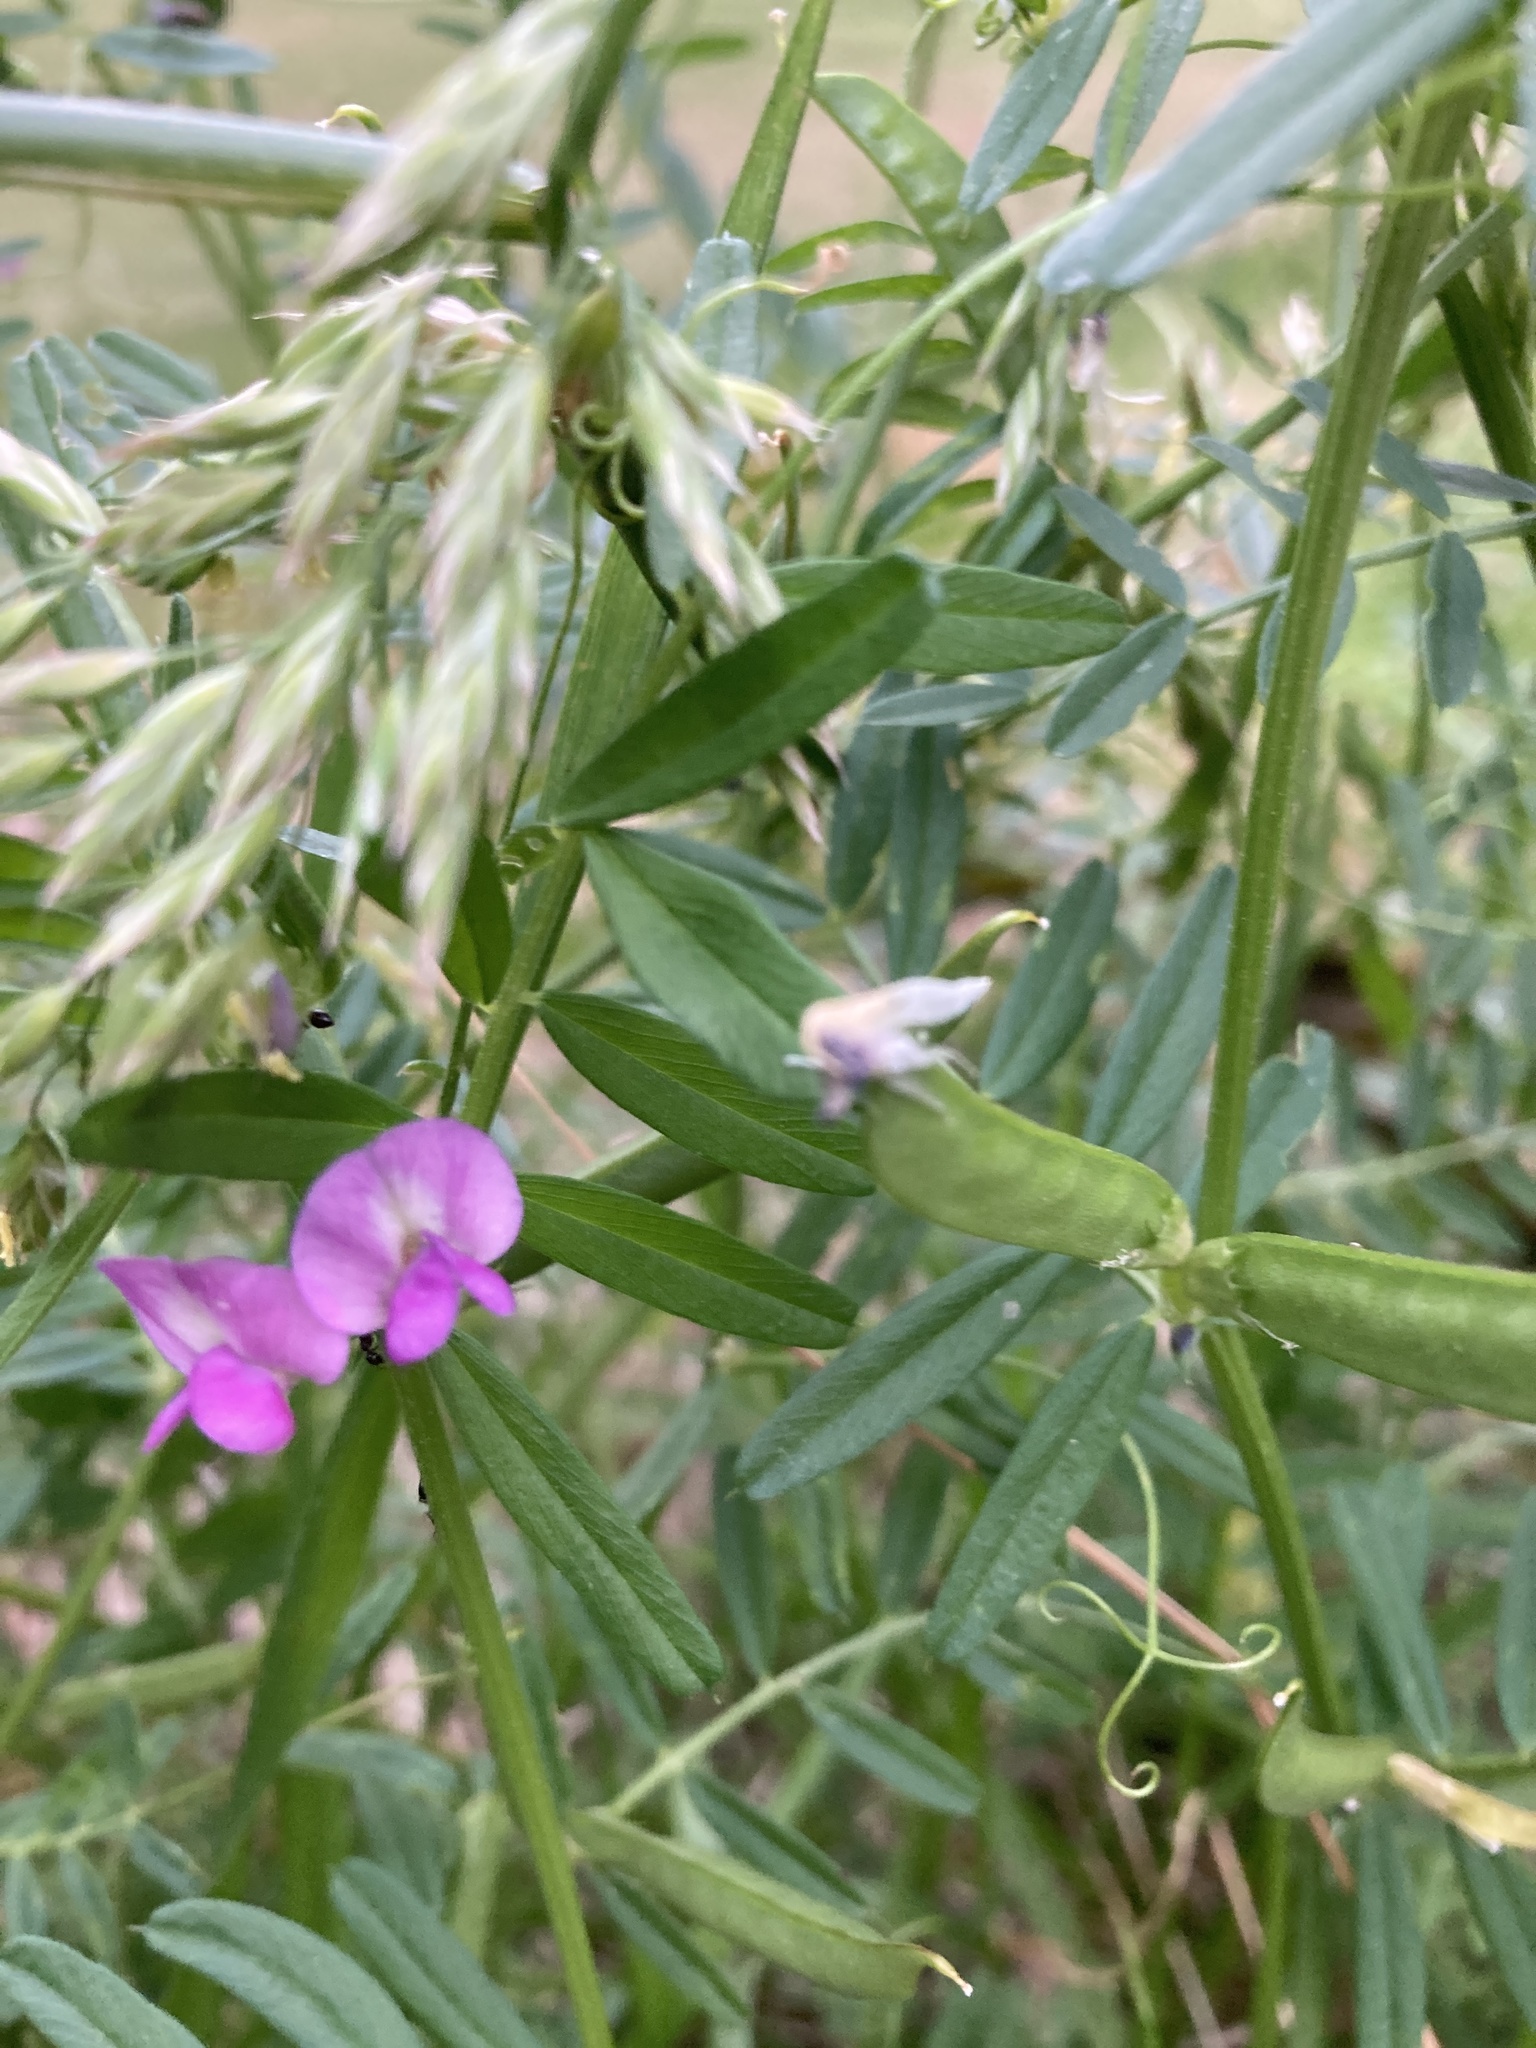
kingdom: Plantae
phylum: Tracheophyta
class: Magnoliopsida
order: Fabales
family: Fabaceae
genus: Vicia
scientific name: Vicia sativa
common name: Garden vetch
